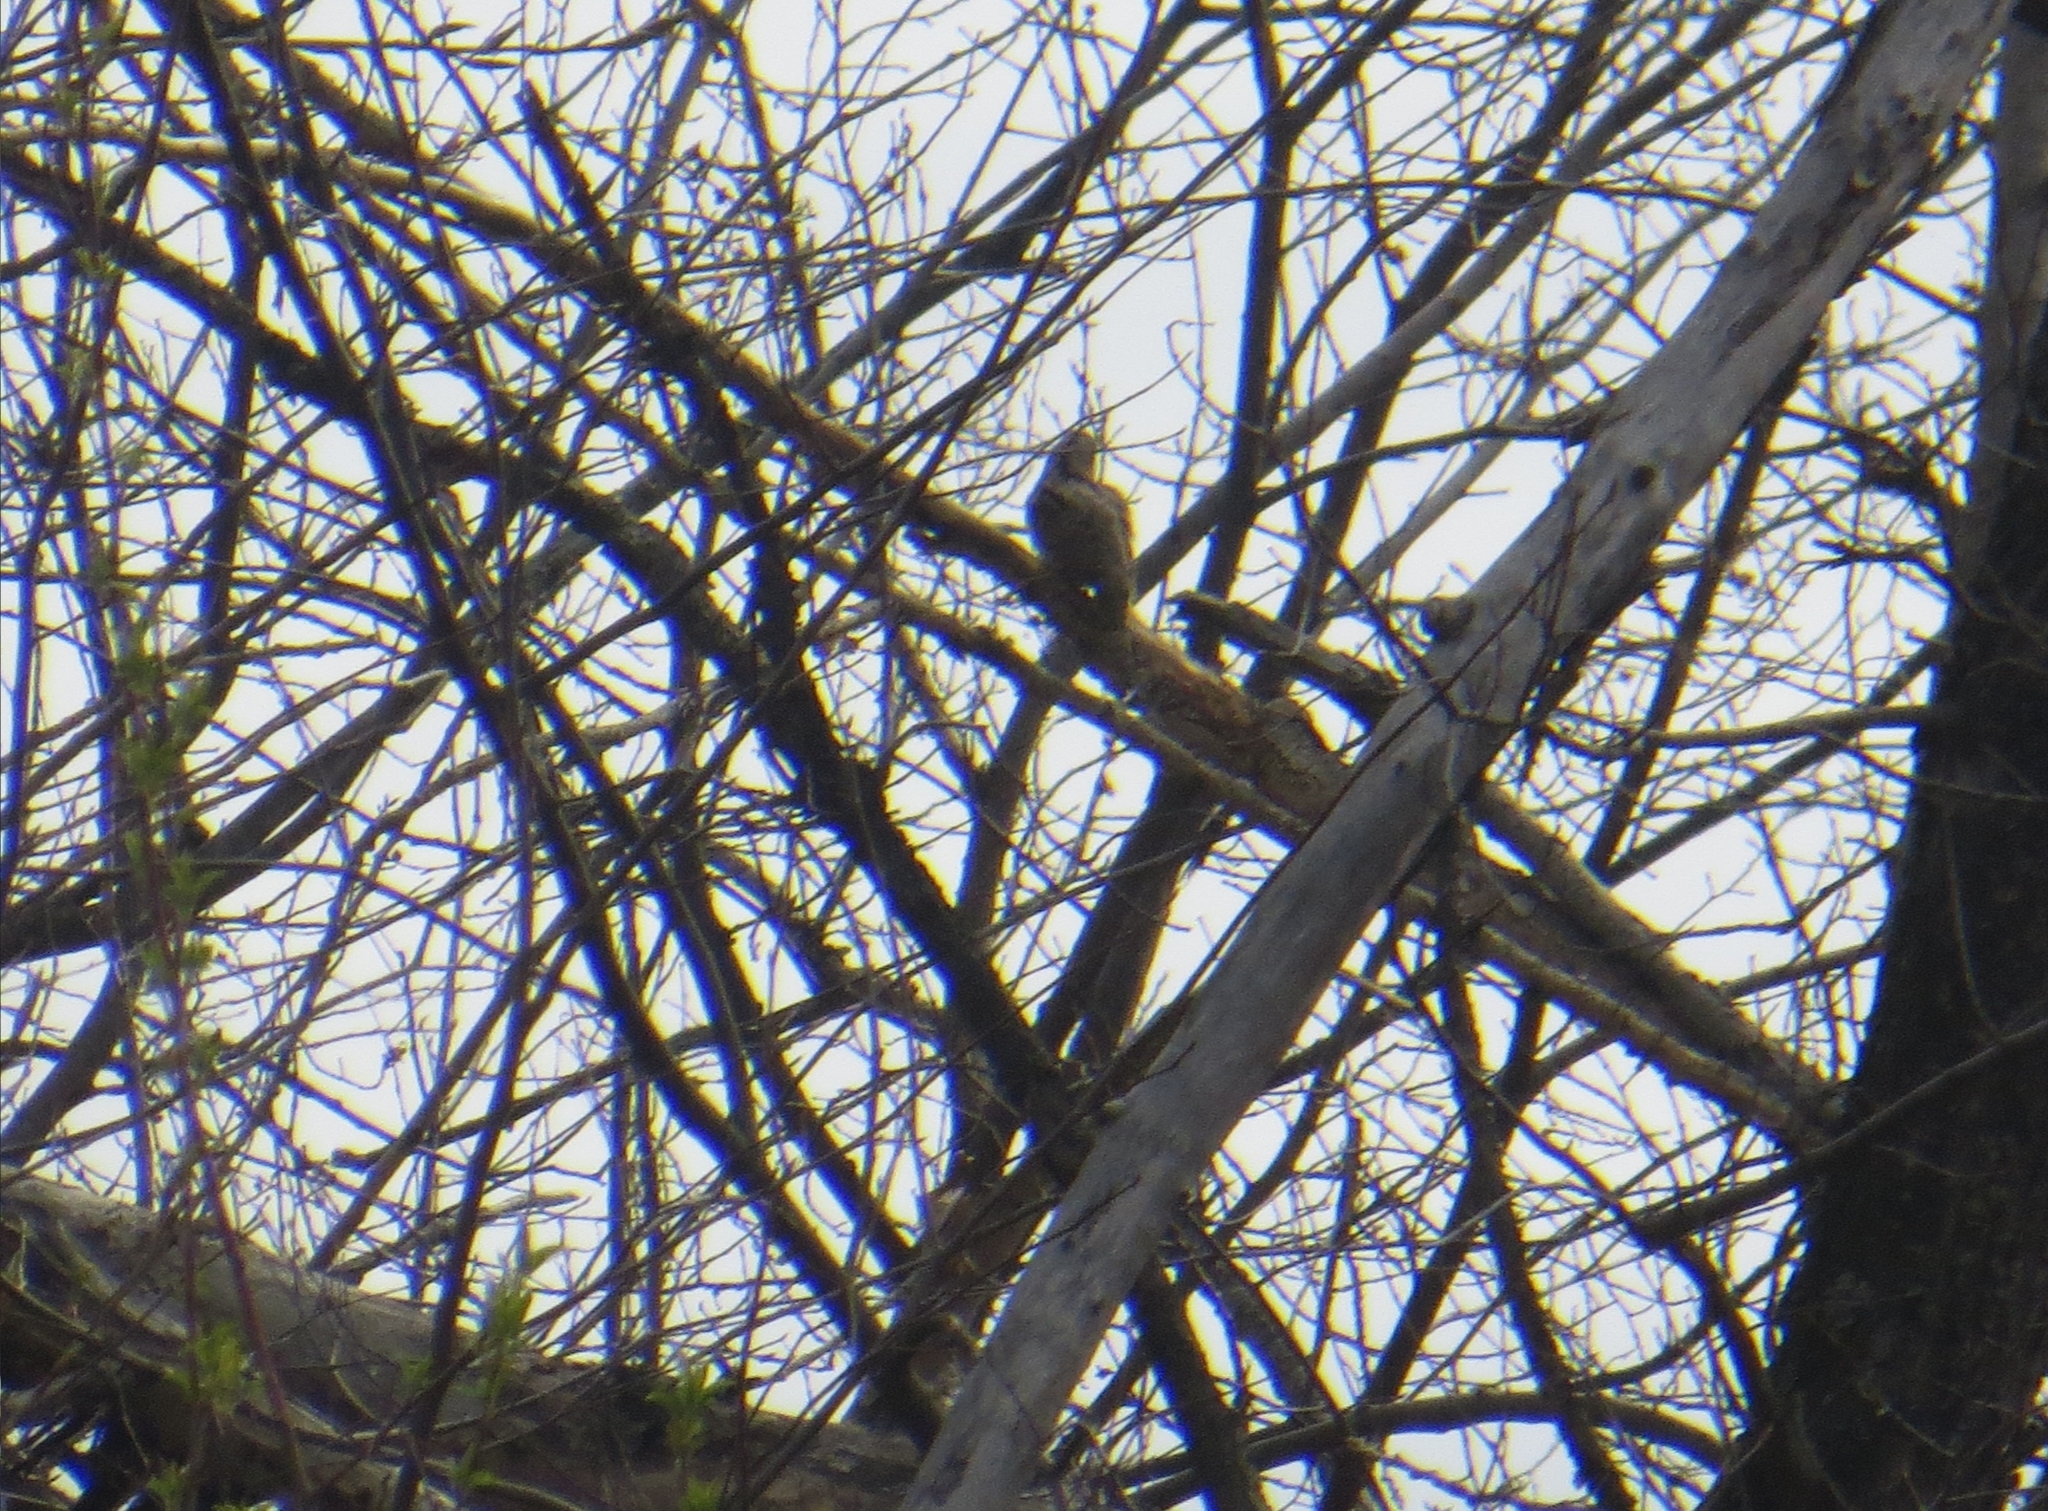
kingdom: Animalia
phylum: Chordata
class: Aves
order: Piciformes
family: Picidae
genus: Jynx
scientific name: Jynx torquilla
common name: Eurasian wryneck
